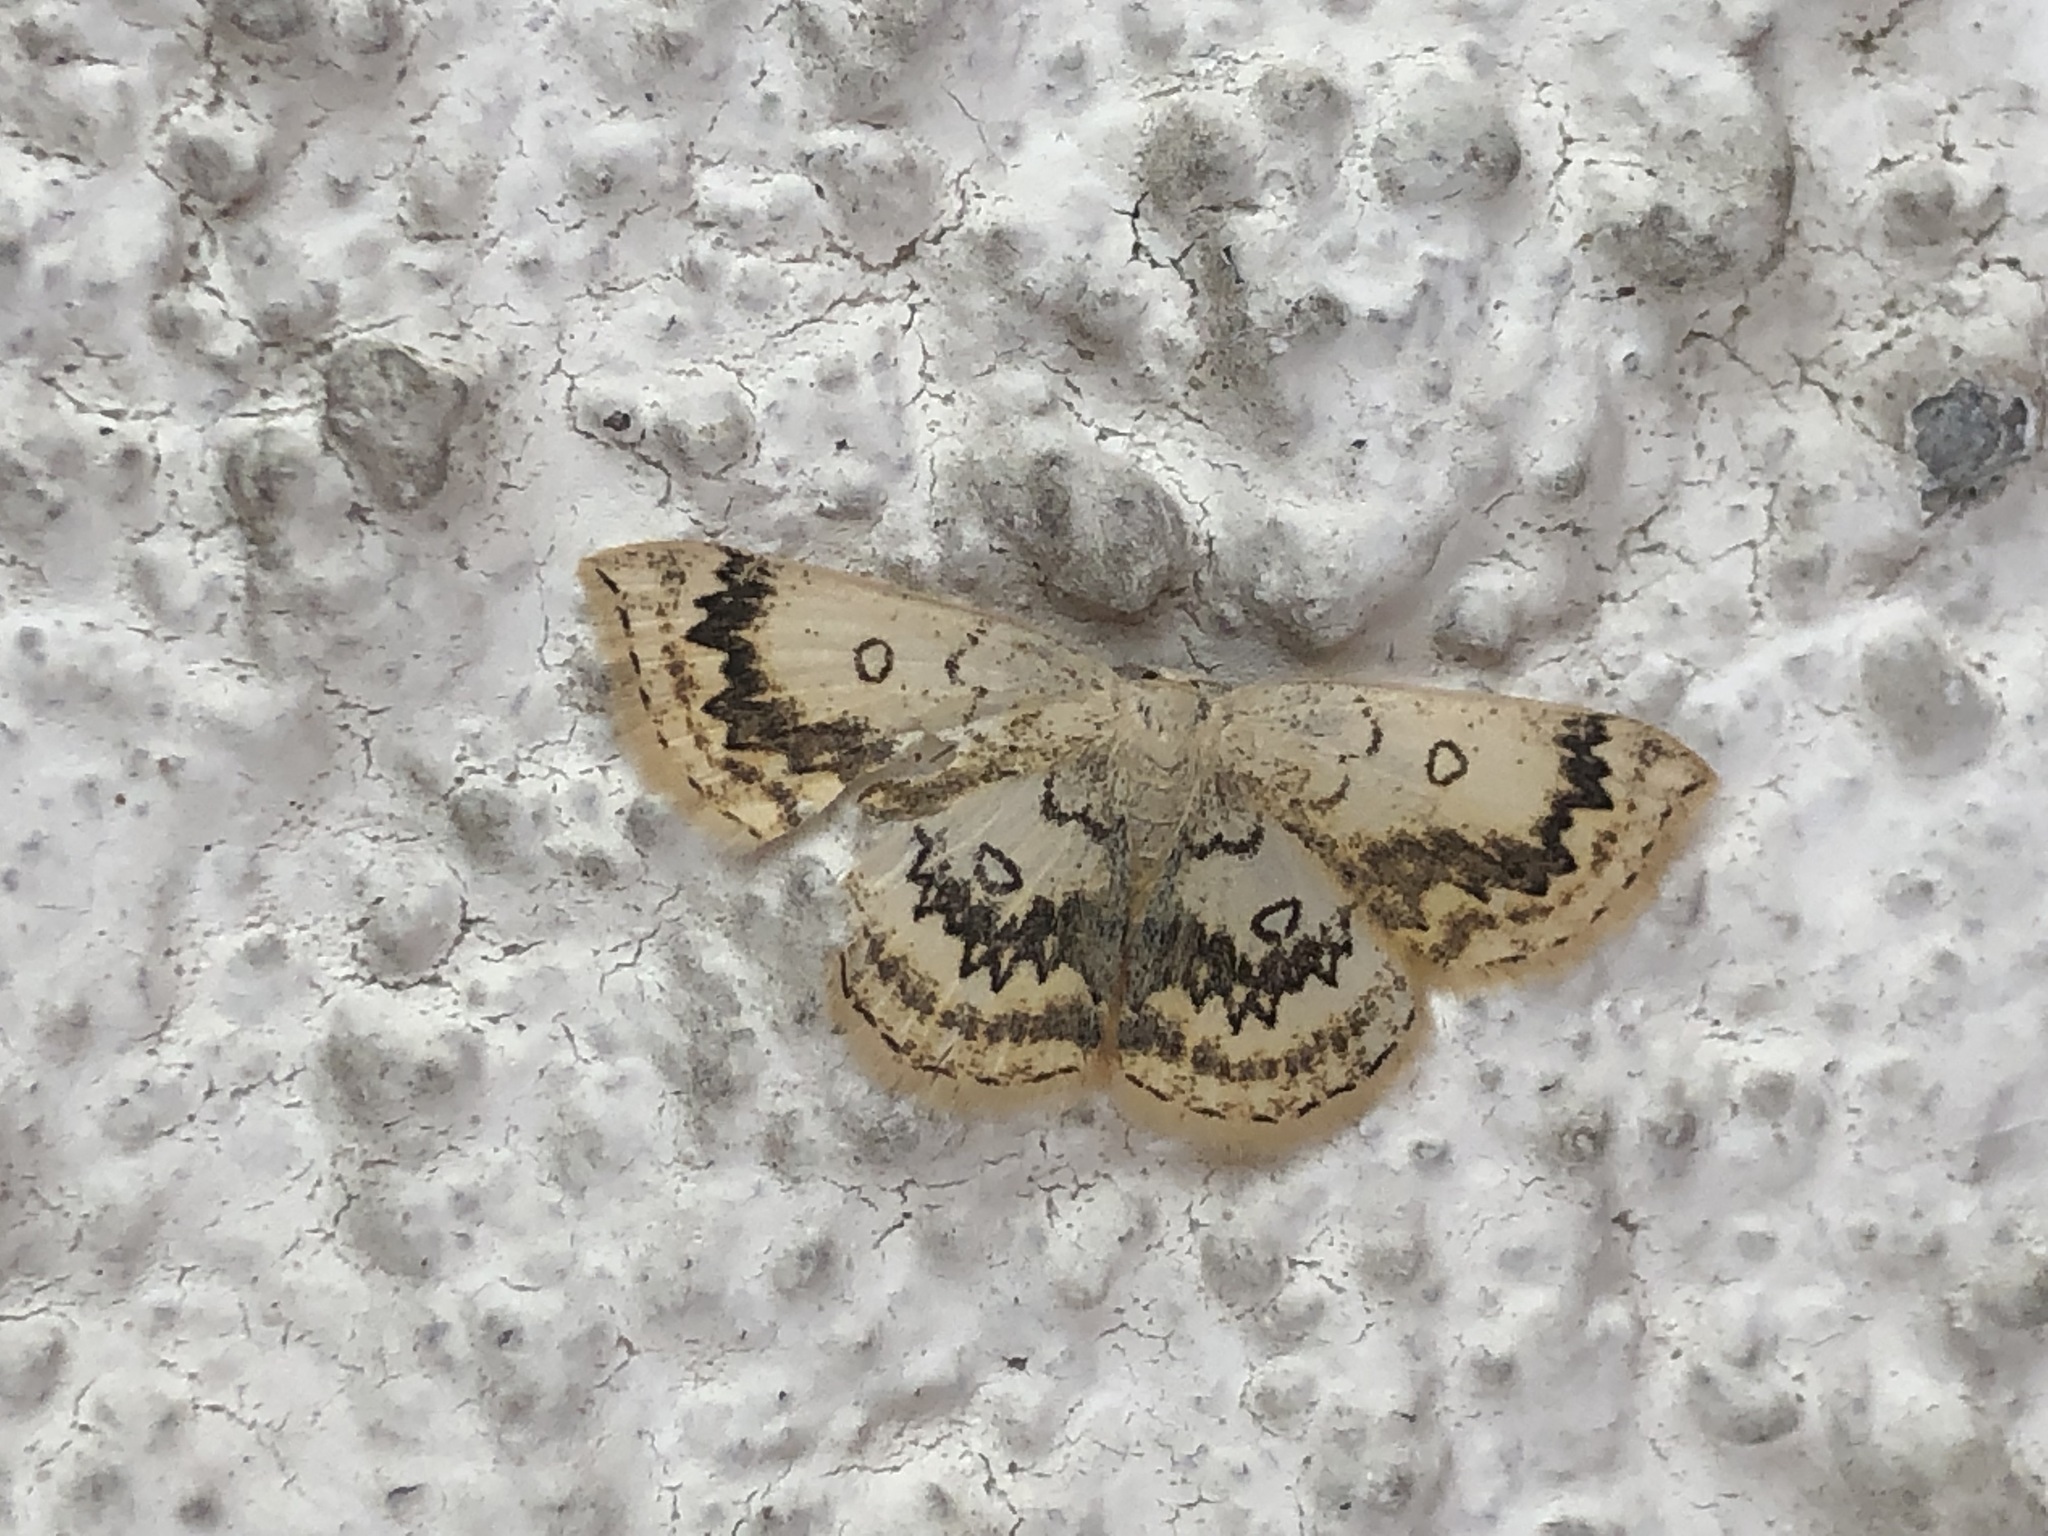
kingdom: Animalia
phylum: Arthropoda
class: Insecta
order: Lepidoptera
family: Geometridae
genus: Cyclophora
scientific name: Cyclophora annularia
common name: Mocha
